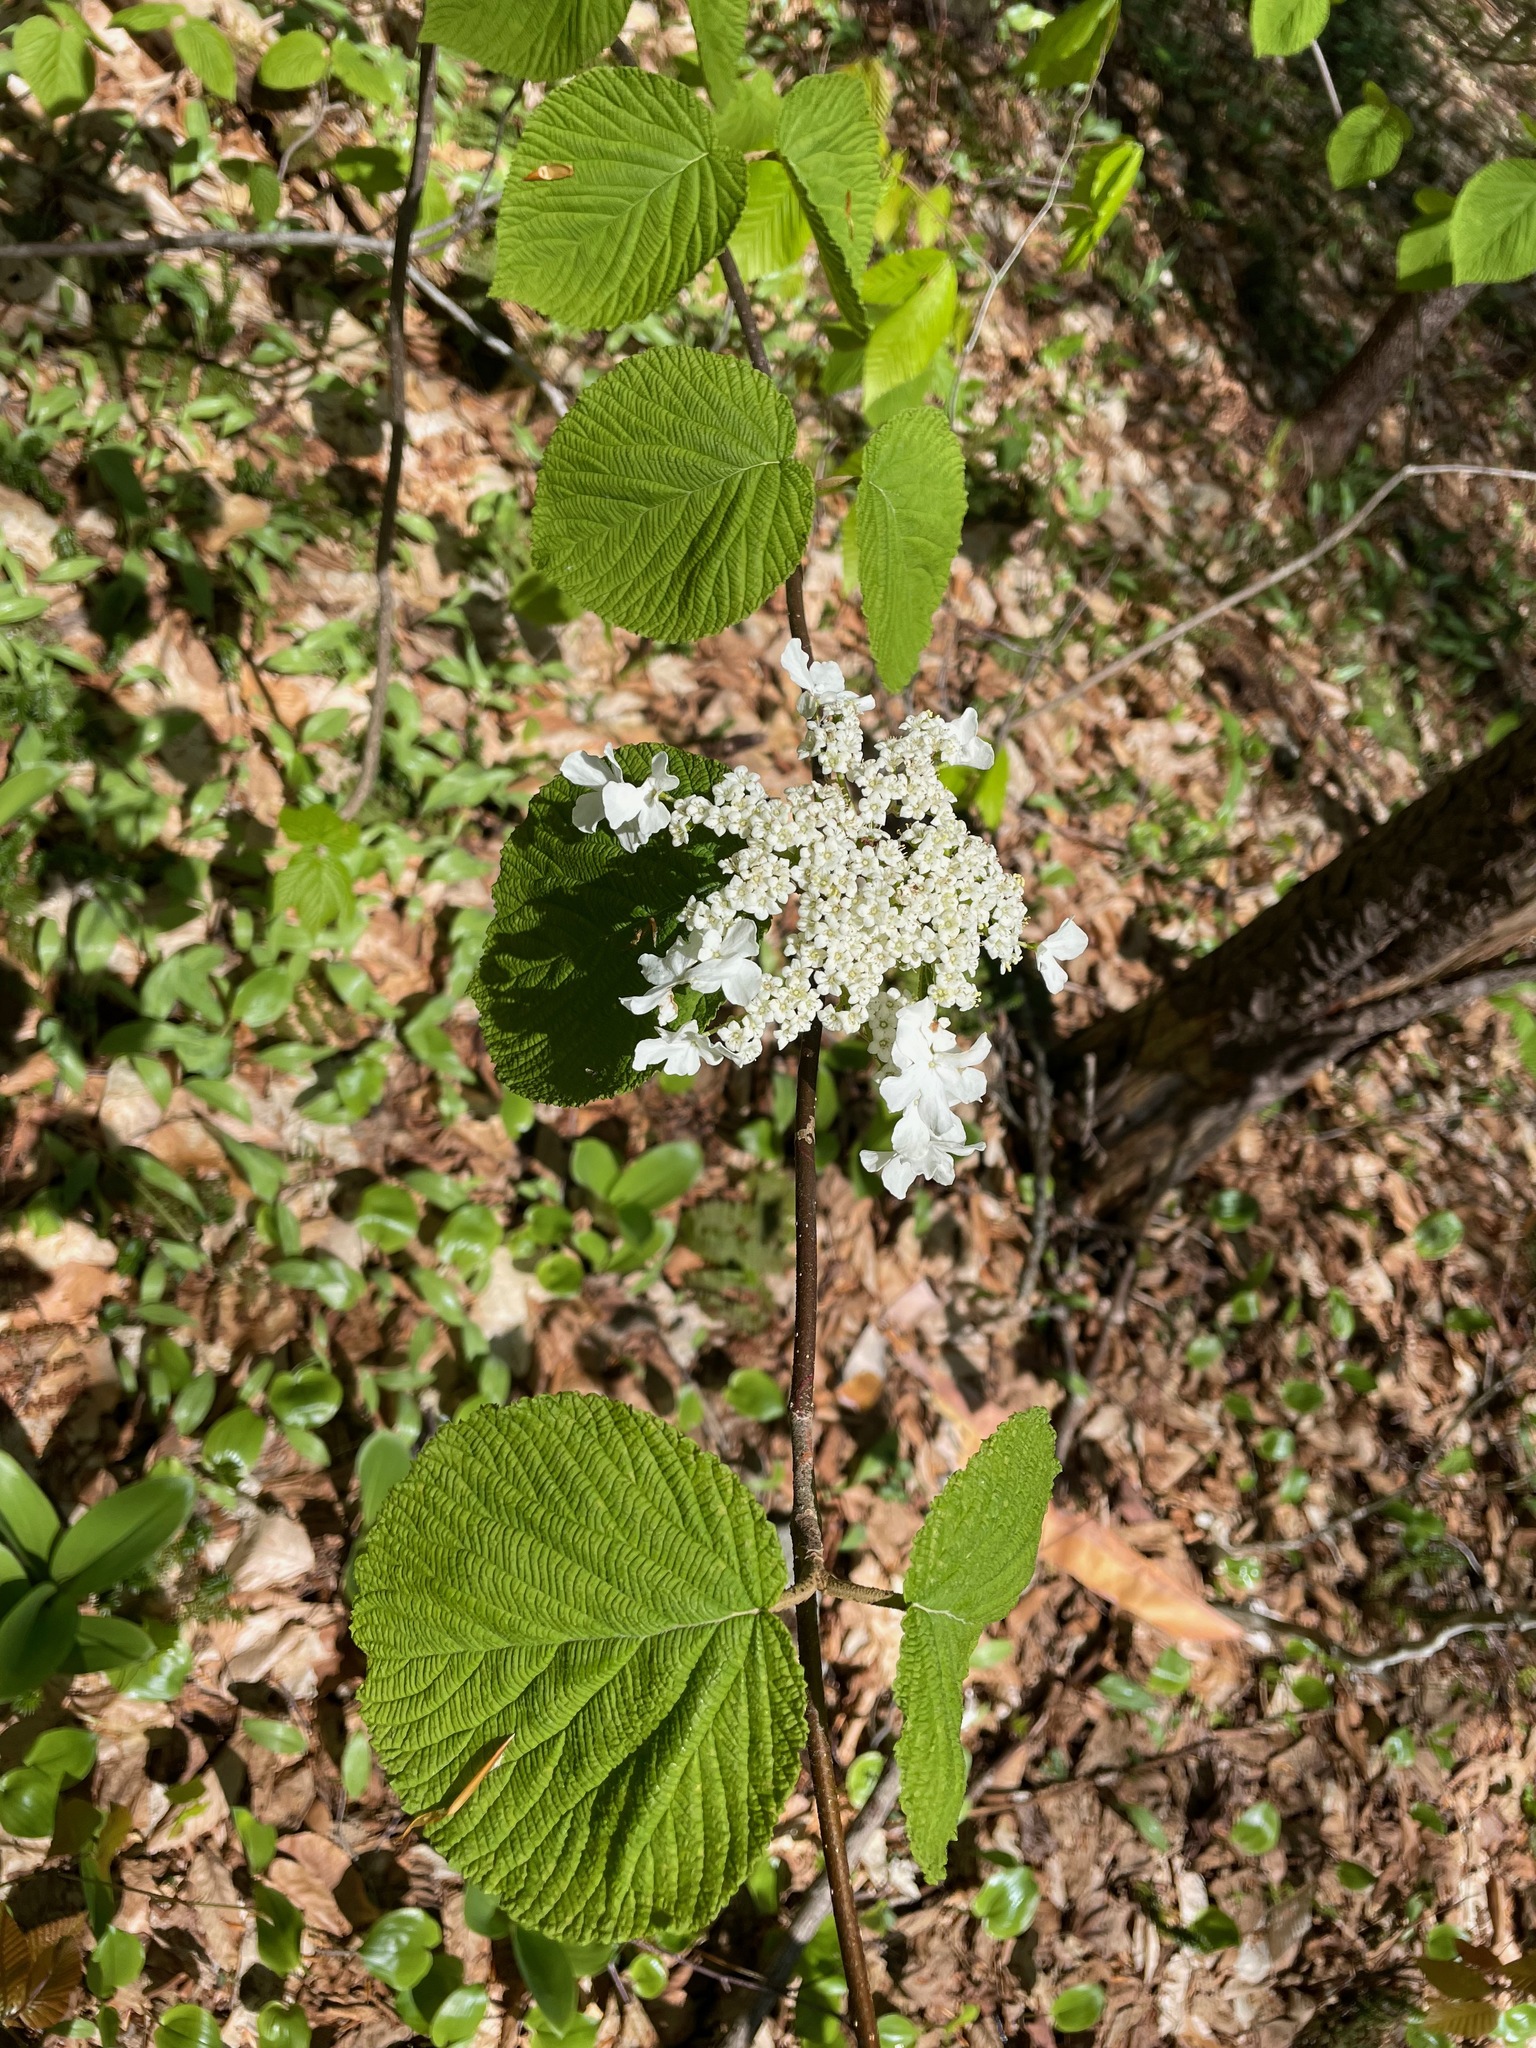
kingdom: Plantae
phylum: Tracheophyta
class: Magnoliopsida
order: Dipsacales
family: Viburnaceae
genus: Viburnum
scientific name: Viburnum lantanoides
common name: Hobblebush
